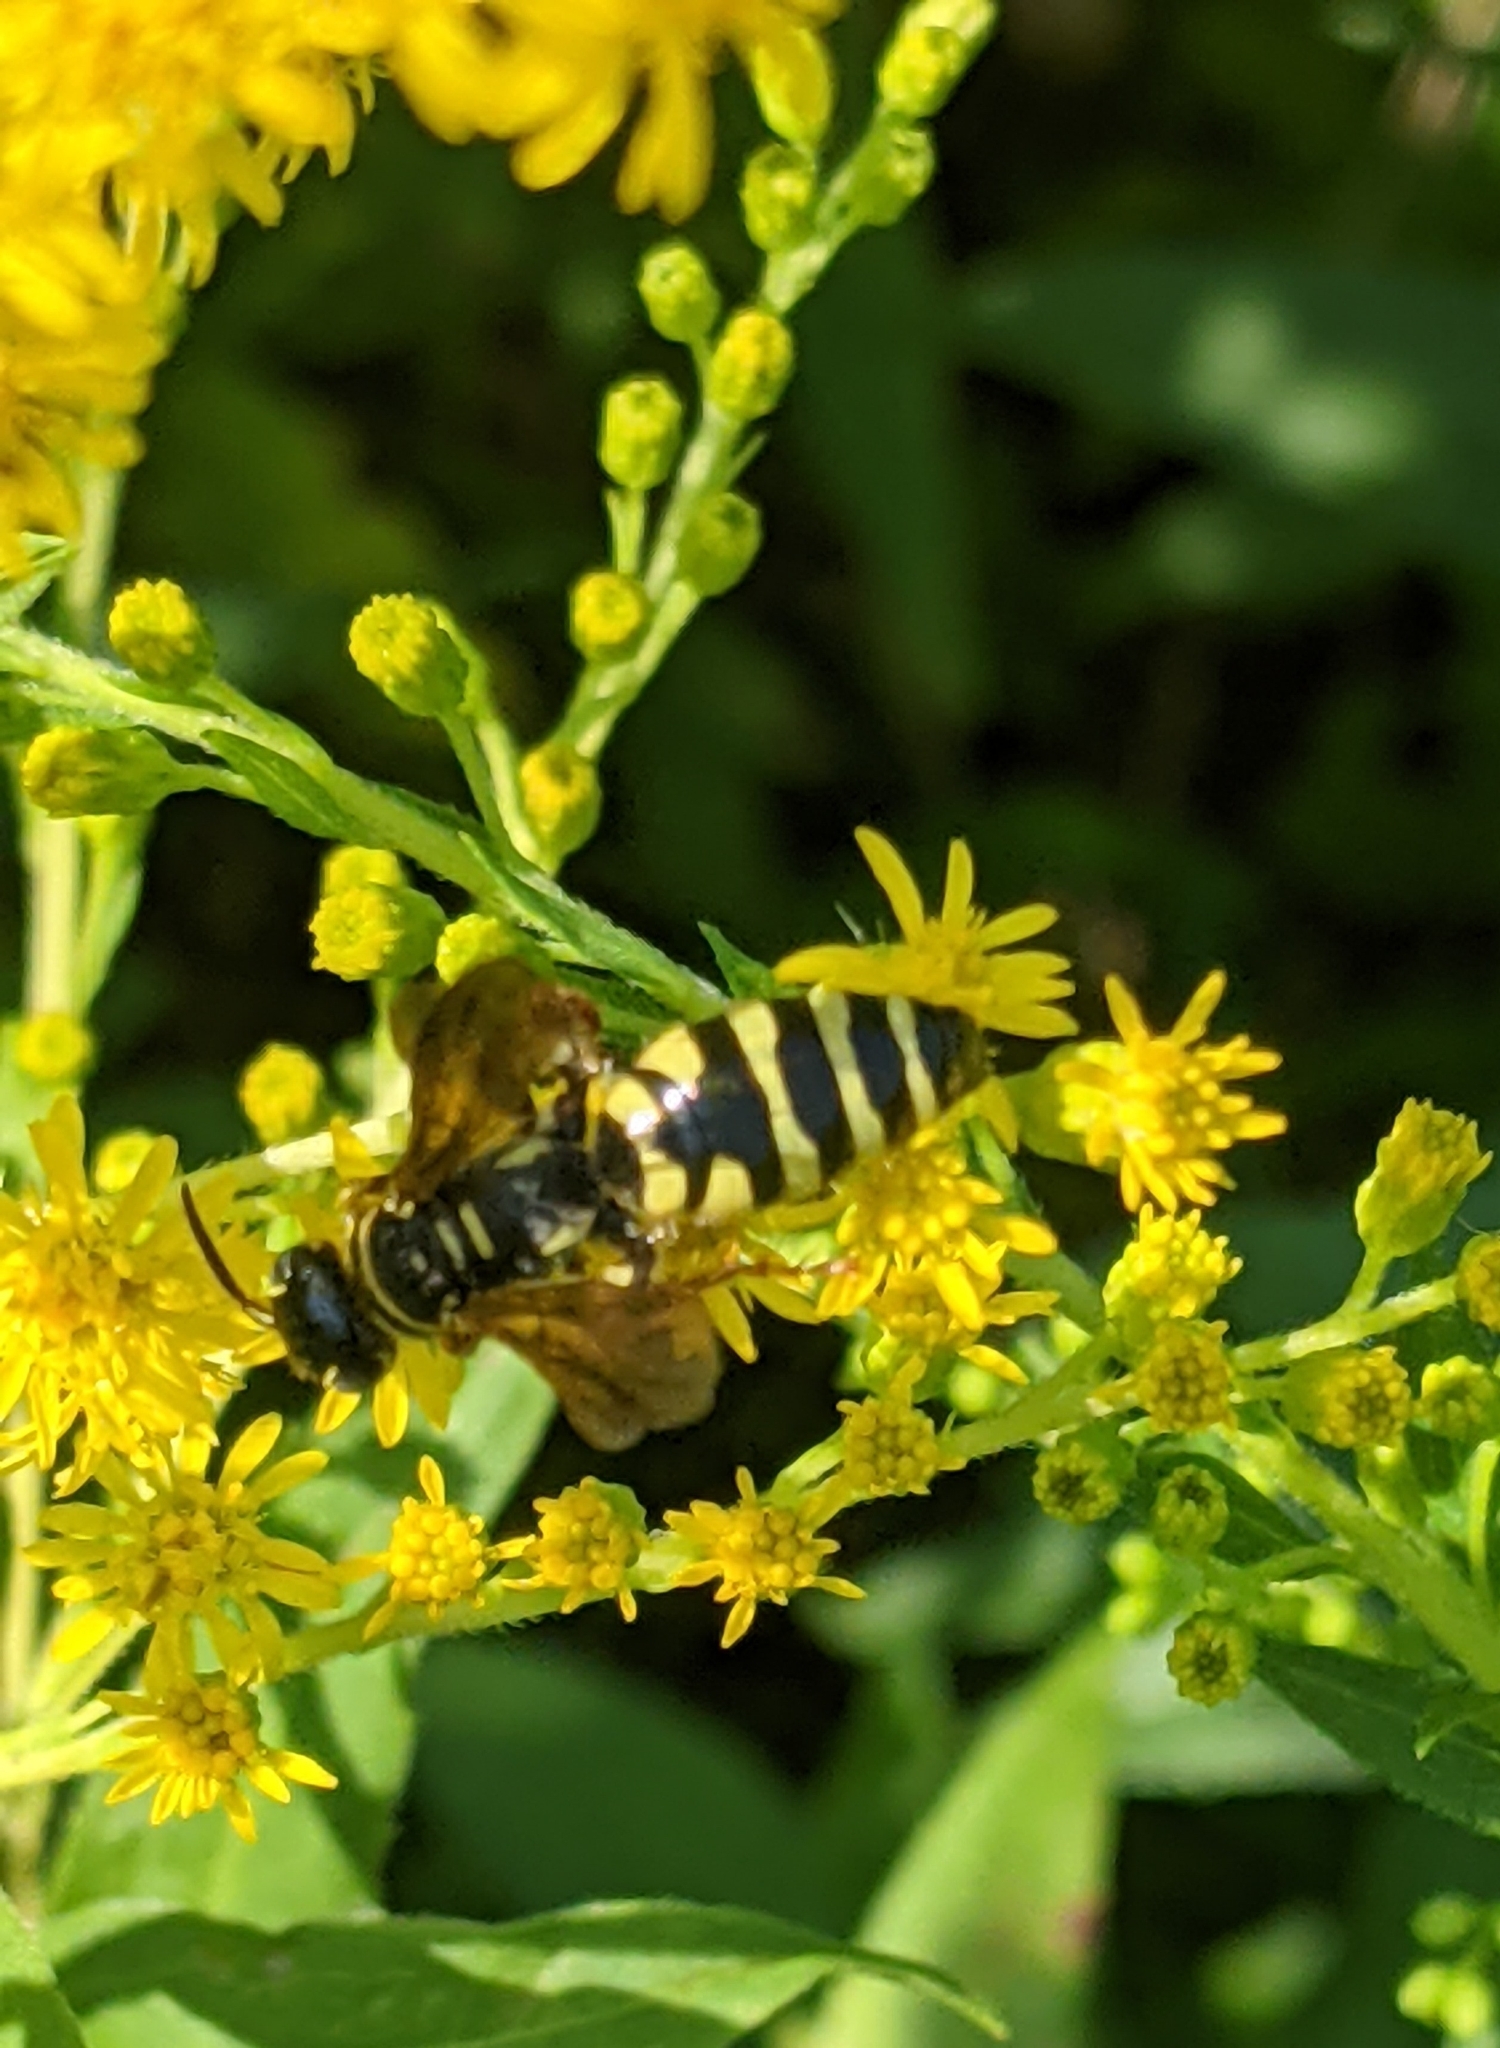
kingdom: Animalia
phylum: Arthropoda
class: Insecta
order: Hymenoptera
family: Tiphiidae
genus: Myzinum
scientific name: Myzinum quinquecinctum
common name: Five-banded thynnid wasp
